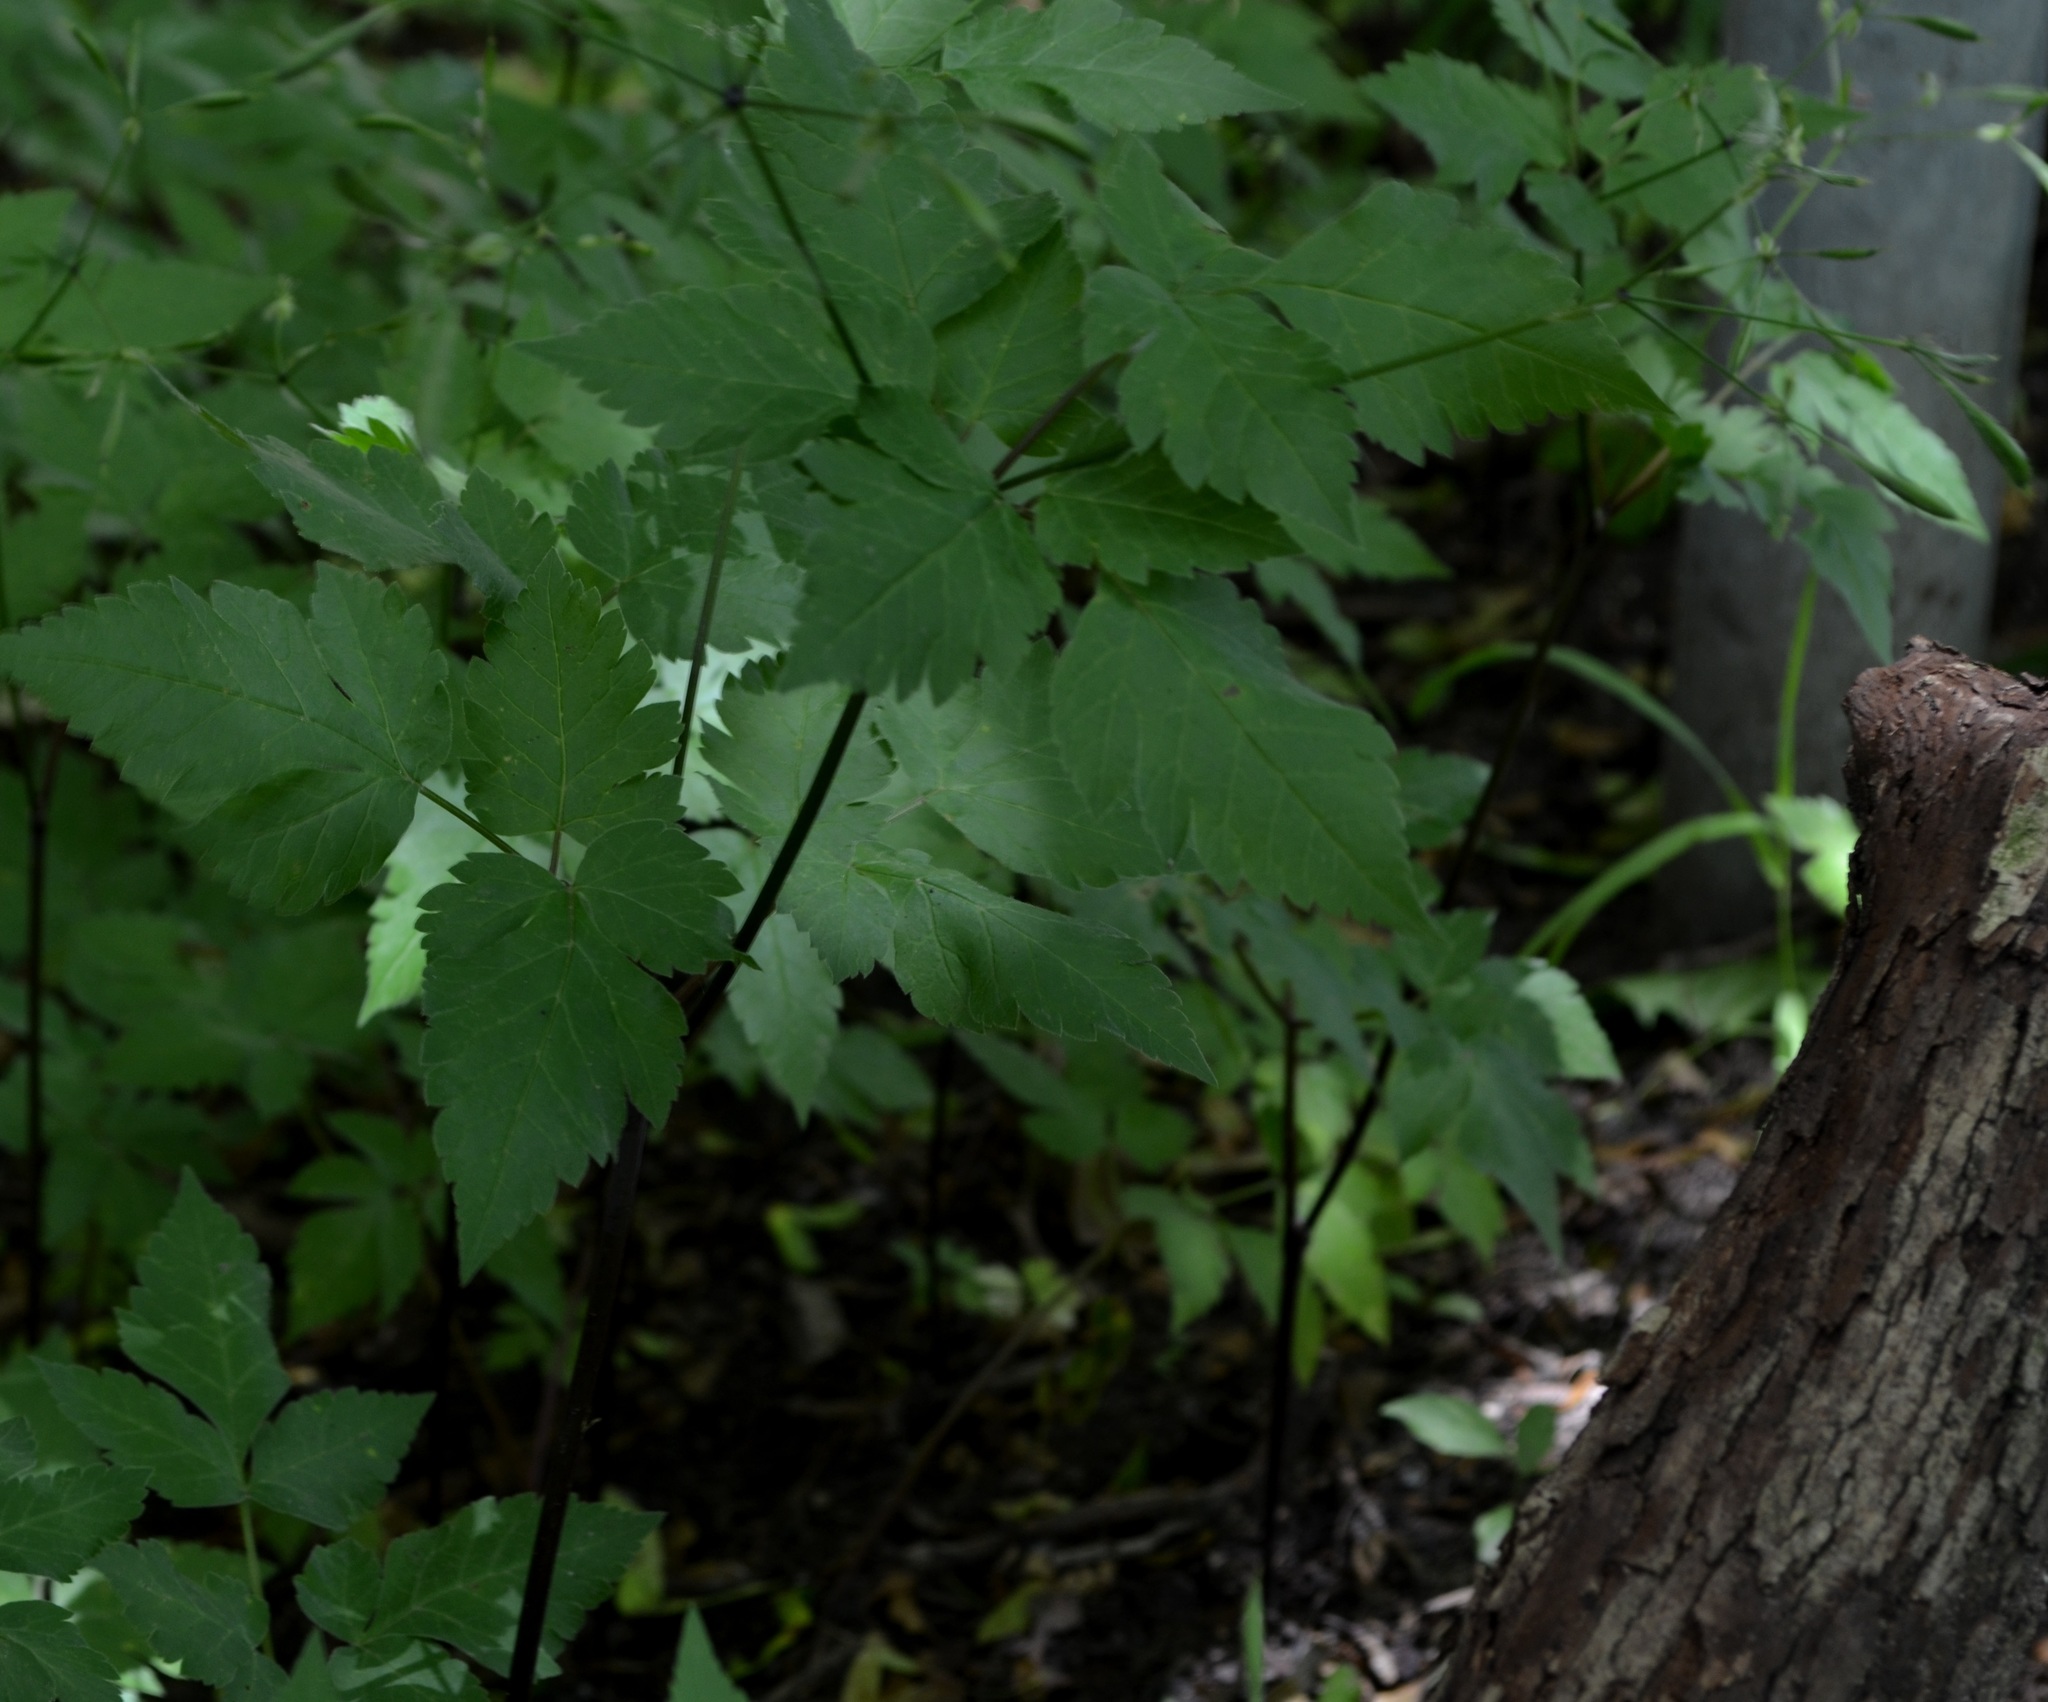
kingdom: Plantae
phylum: Tracheophyta
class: Magnoliopsida
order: Apiales
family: Apiaceae
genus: Osmorhiza
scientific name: Osmorhiza longistylis
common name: Smooth sweet cicely
